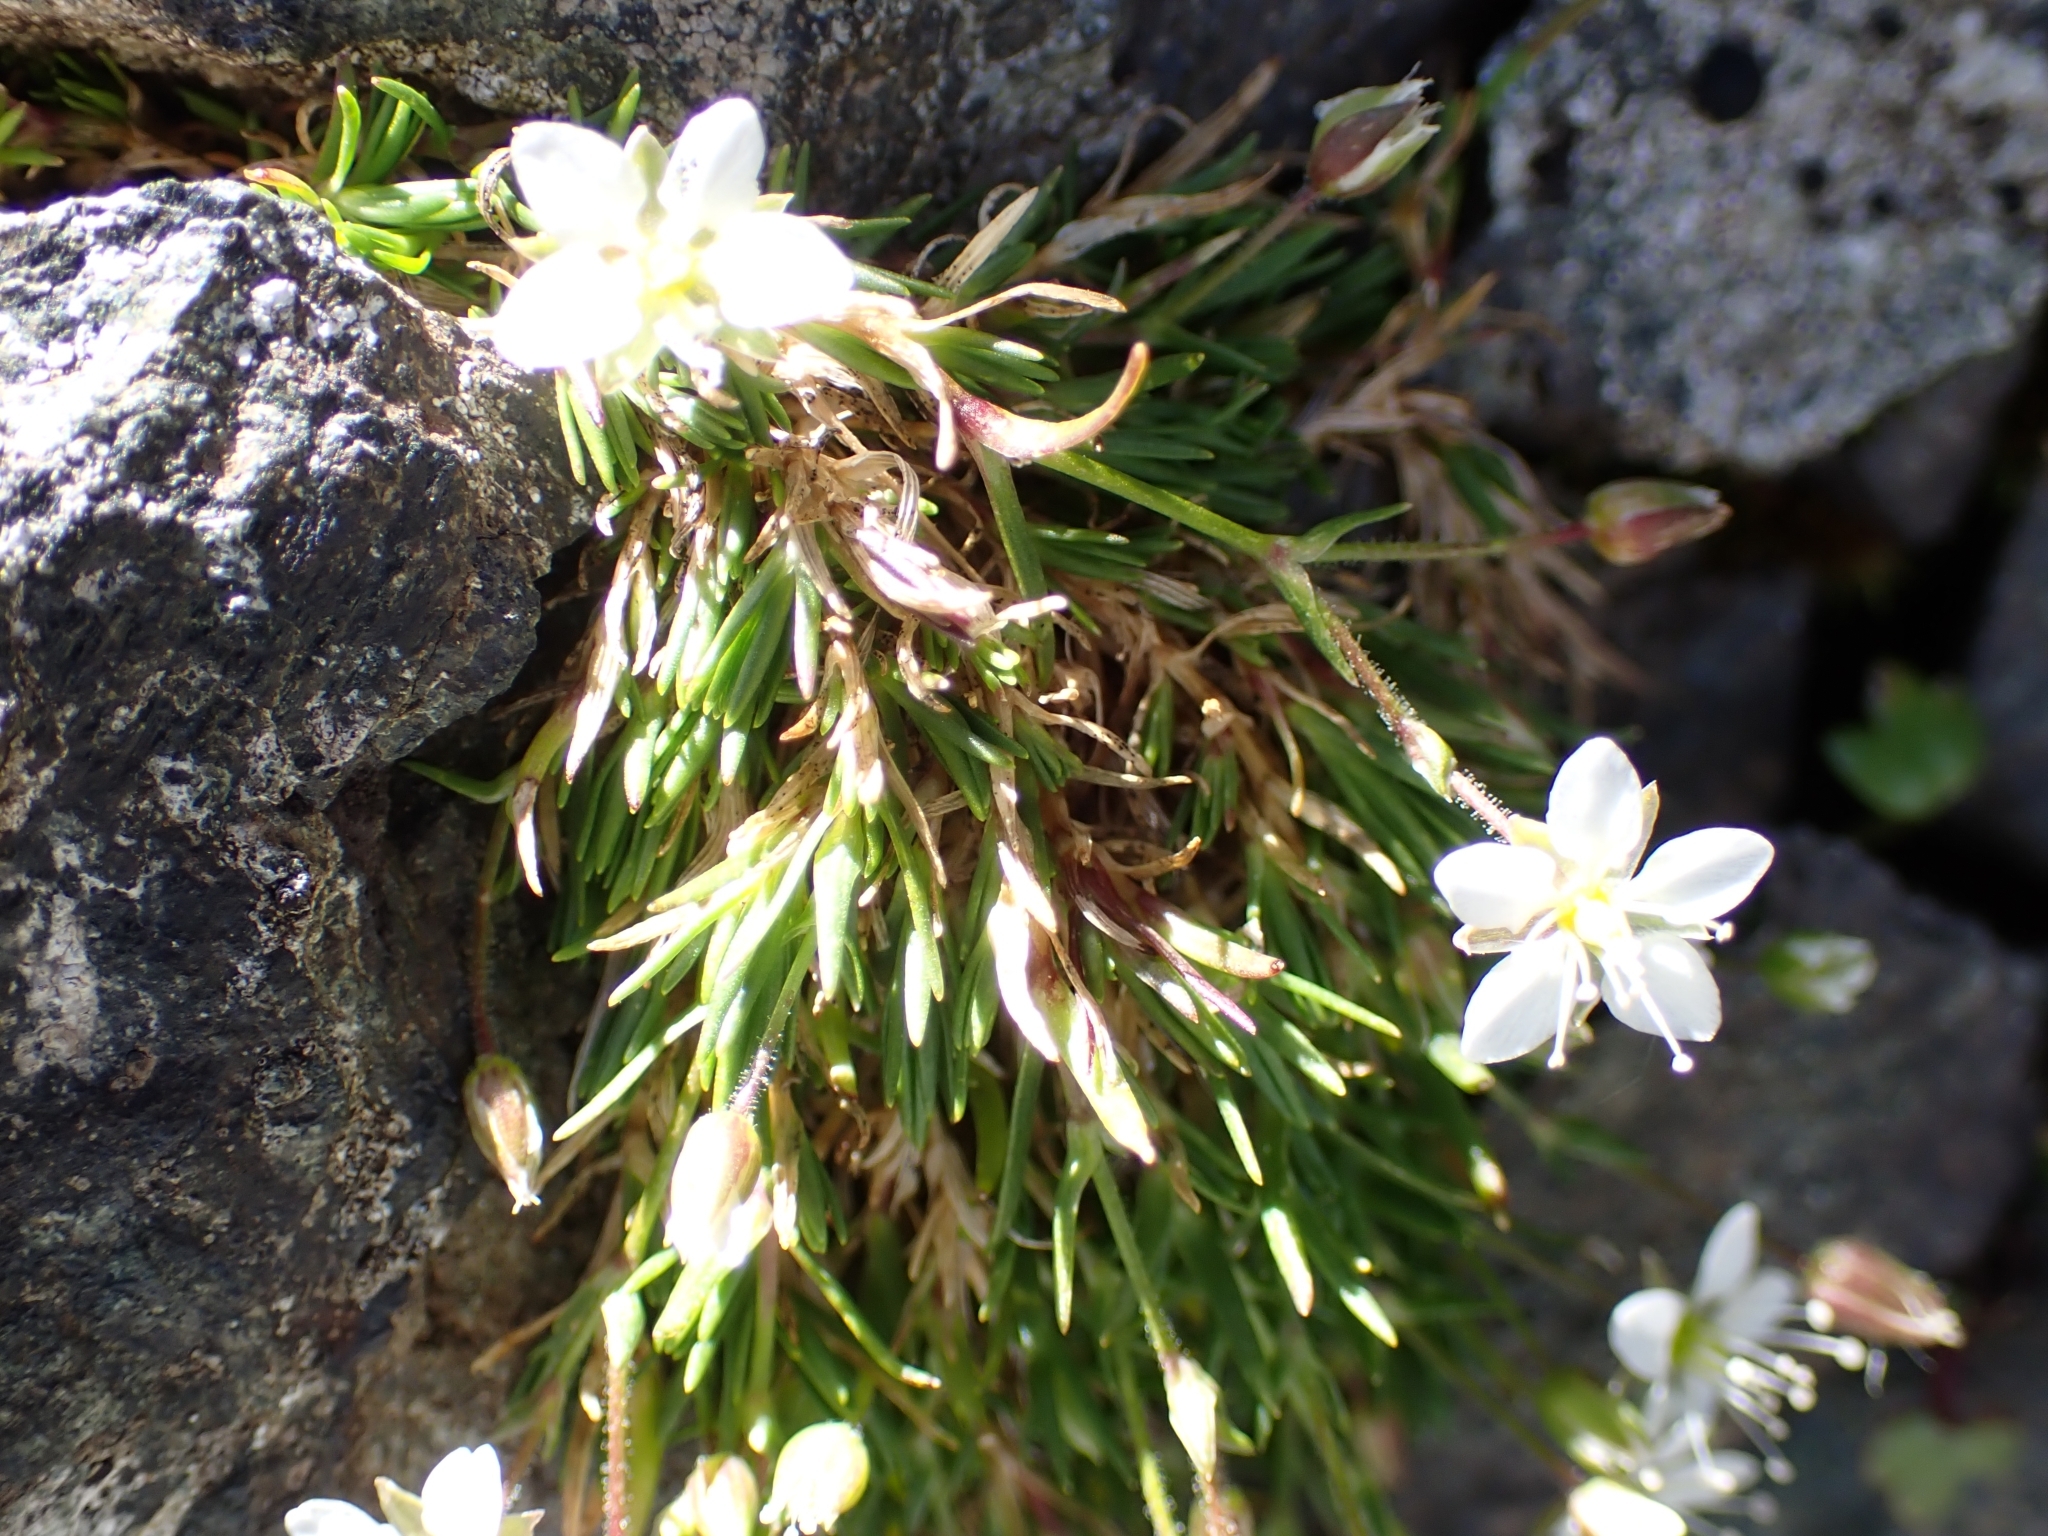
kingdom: Plantae
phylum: Tracheophyta
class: Magnoliopsida
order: Caryophyllales
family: Caryophyllaceae
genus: Sabulina
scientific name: Sabulina verna
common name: Spring sandwort
